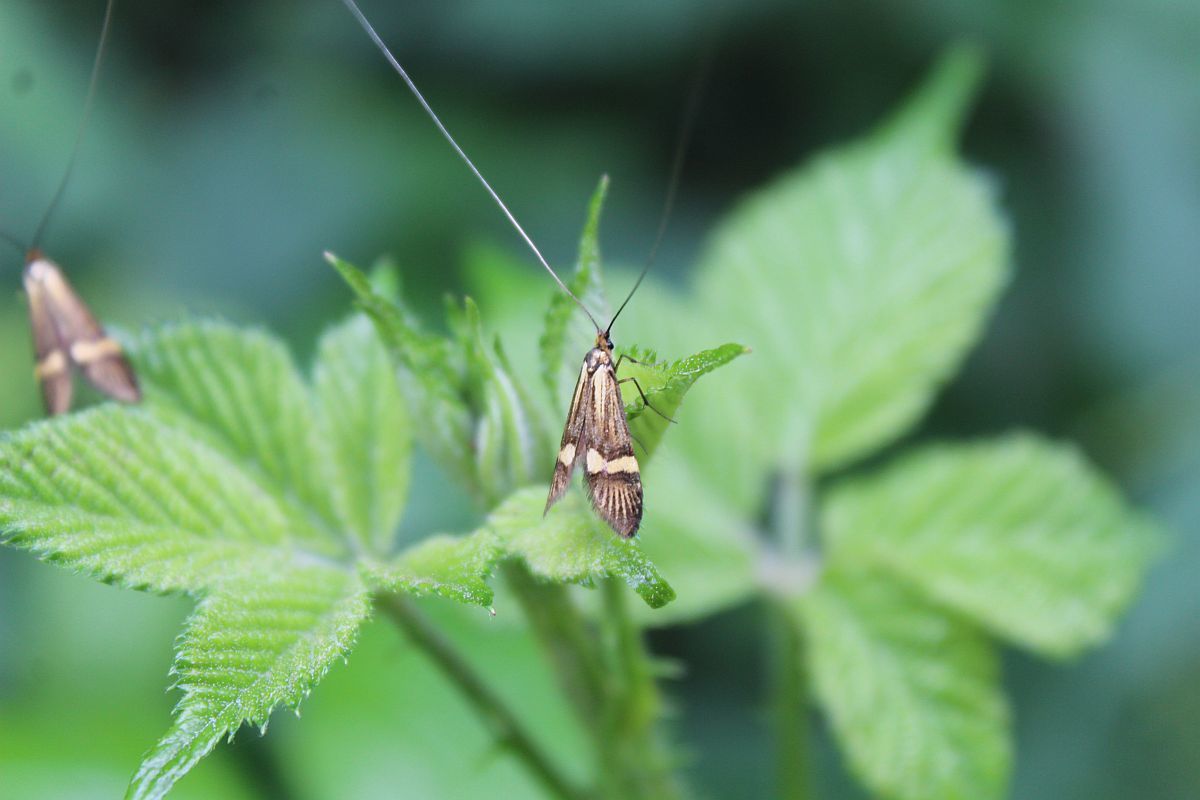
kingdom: Animalia
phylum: Arthropoda
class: Insecta
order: Lepidoptera
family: Adelidae
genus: Nemophora
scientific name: Nemophora degeerella
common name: Yellow-barred long-horn
